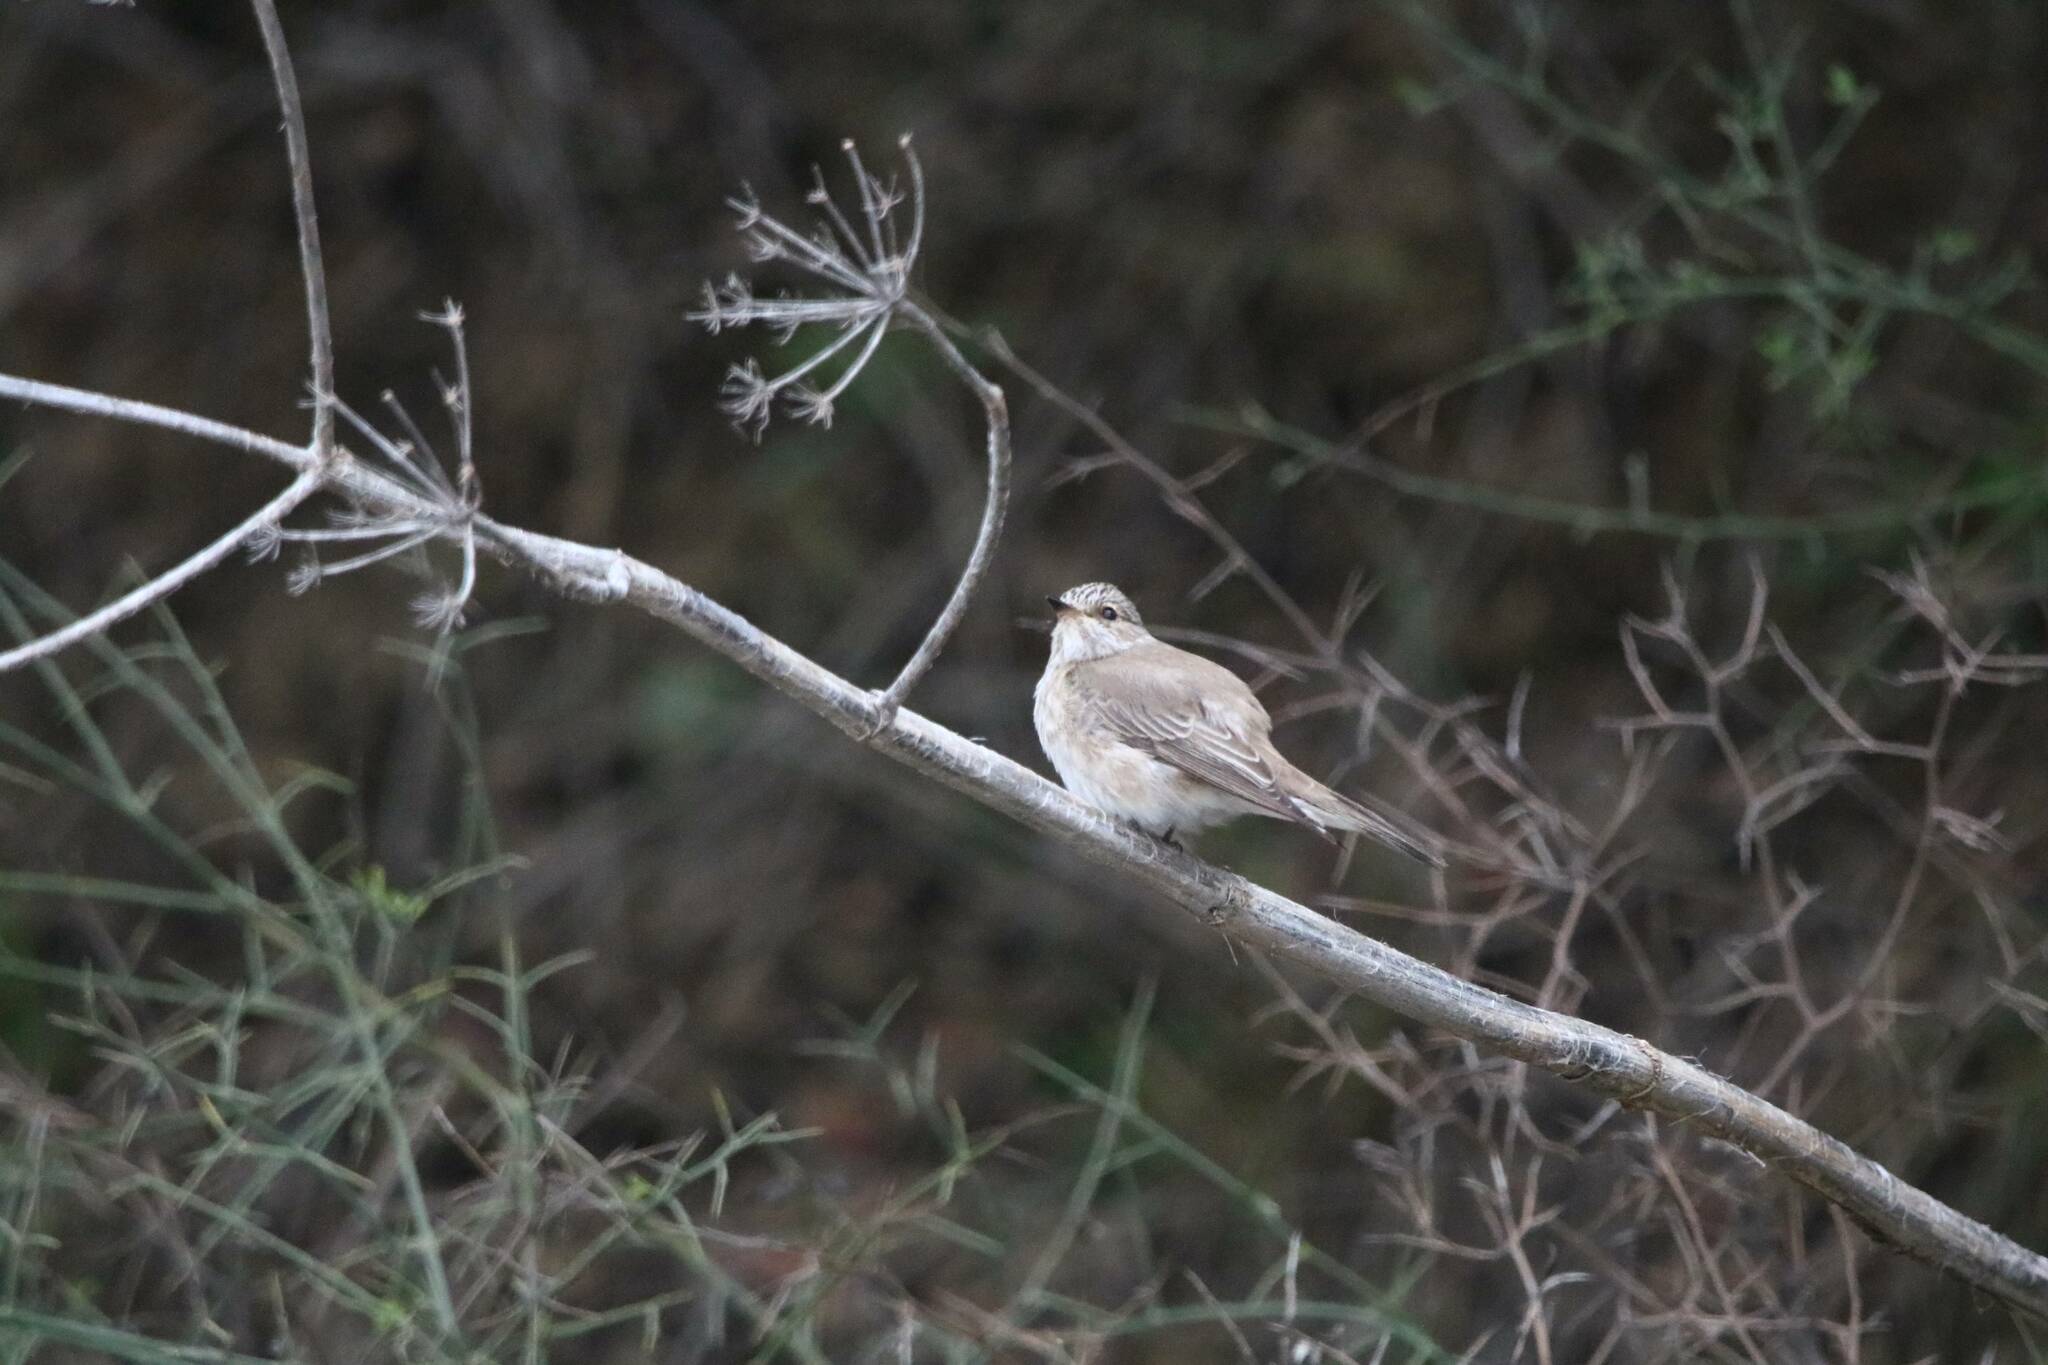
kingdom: Animalia
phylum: Chordata
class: Aves
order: Passeriformes
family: Muscicapidae
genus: Muscicapa
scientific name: Muscicapa striata
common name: Spotted flycatcher
